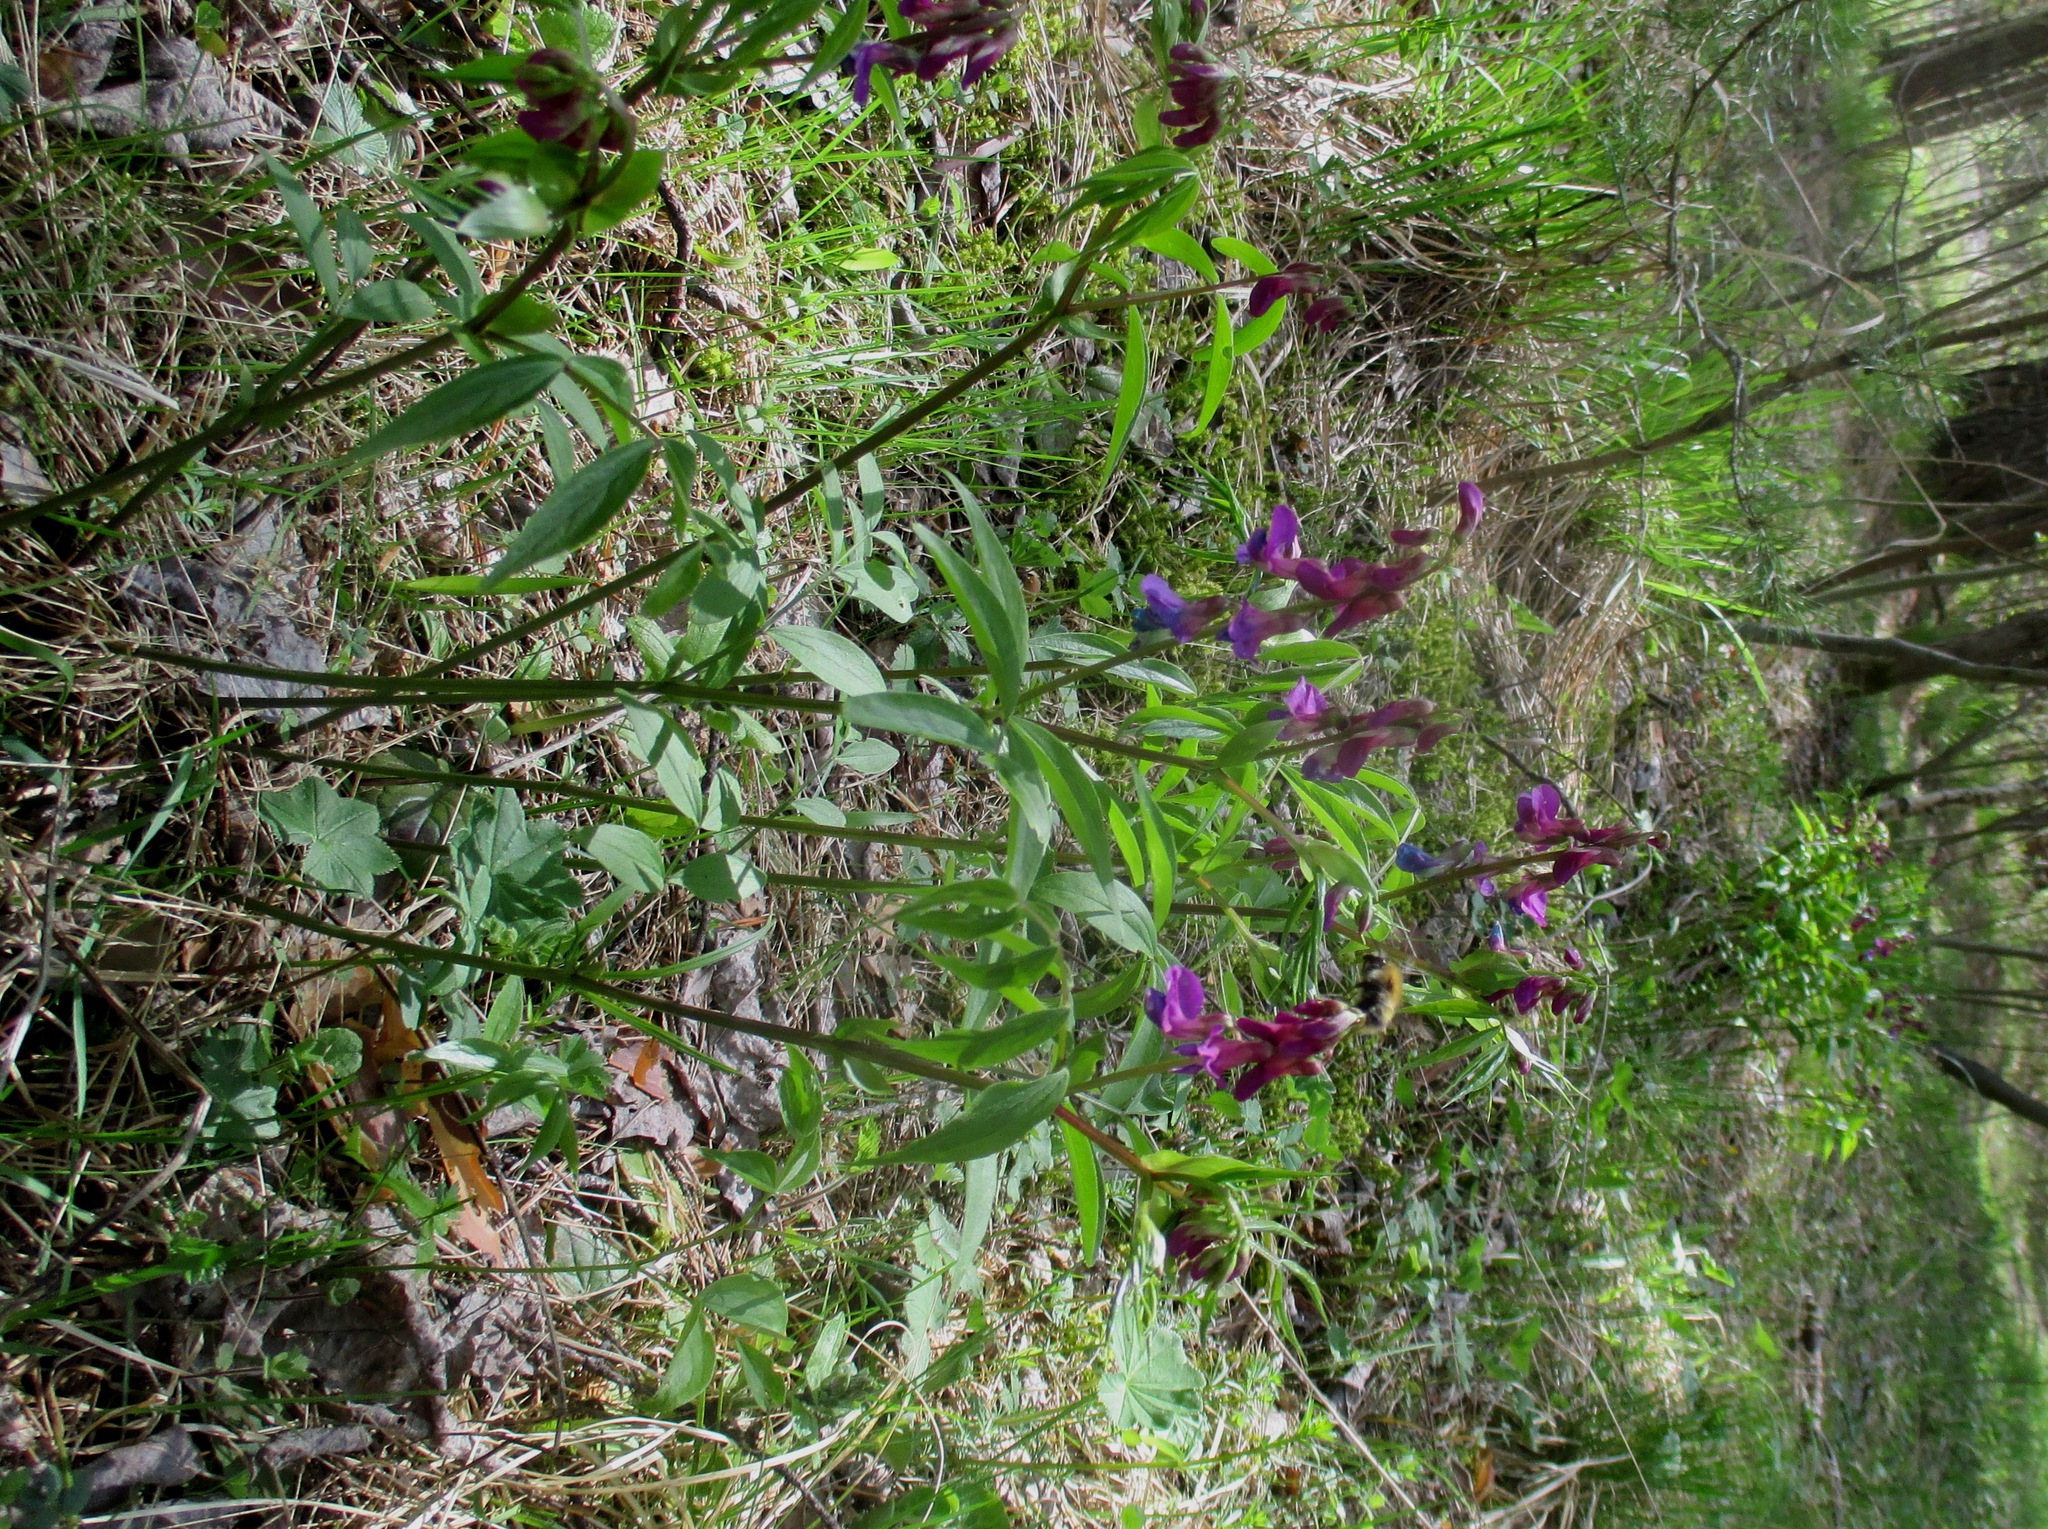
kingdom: Plantae
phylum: Tracheophyta
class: Magnoliopsida
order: Fabales
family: Fabaceae
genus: Lathyrus
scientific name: Lathyrus vernus
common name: Spring pea
